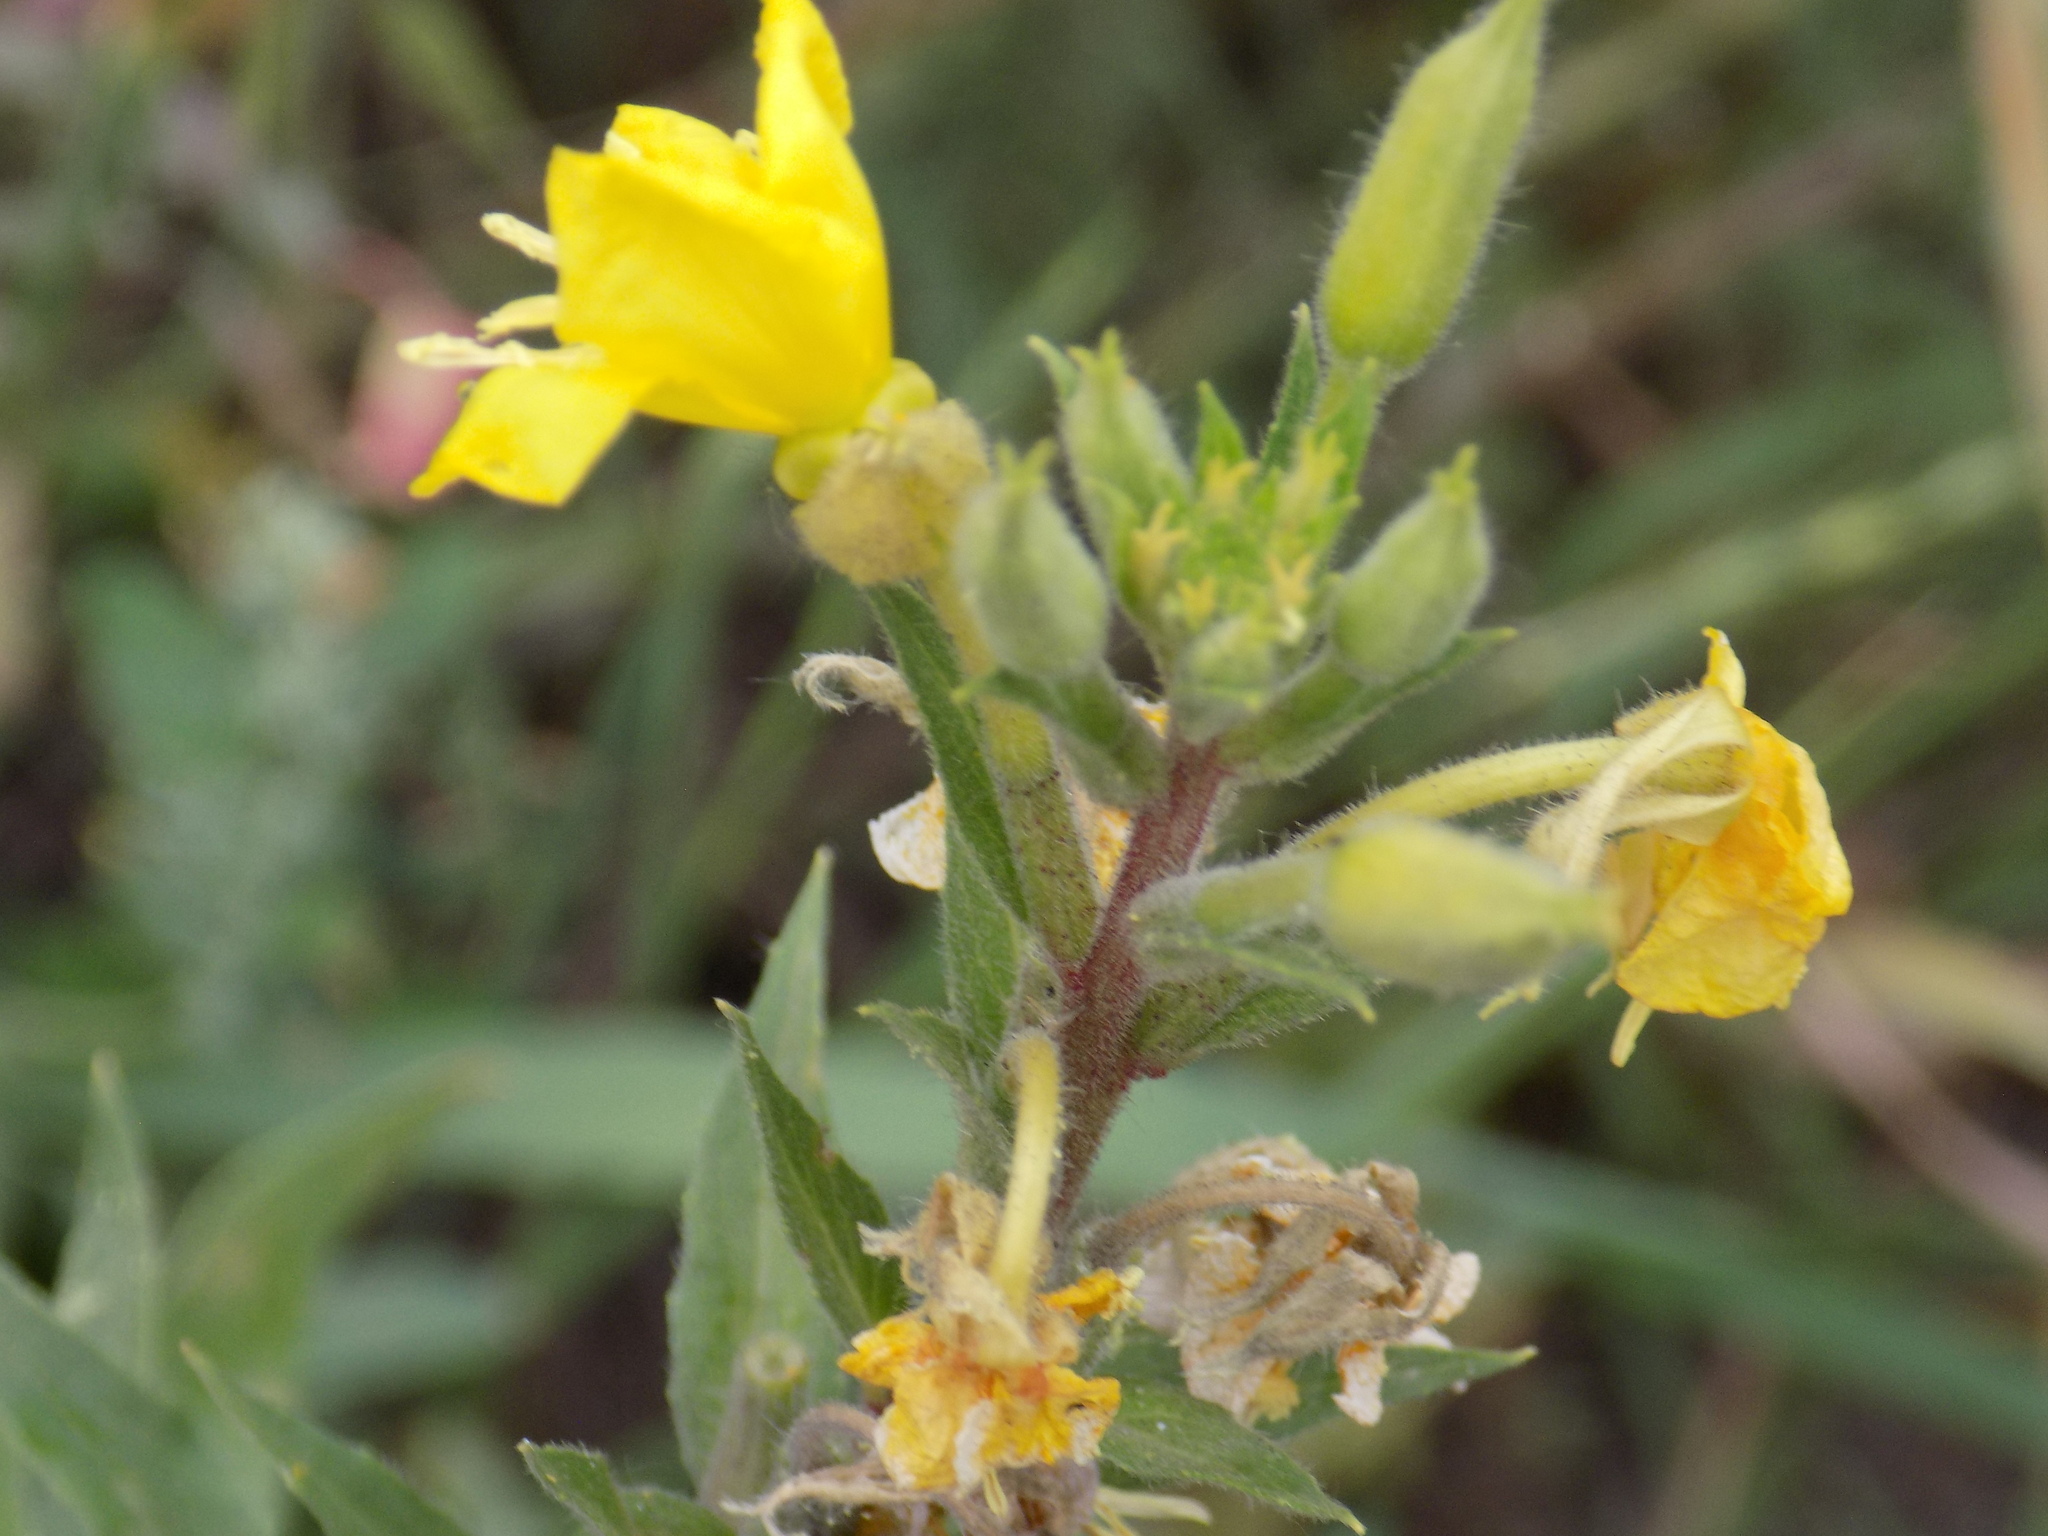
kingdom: Plantae
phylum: Tracheophyta
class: Magnoliopsida
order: Myrtales
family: Onagraceae
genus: Oenothera
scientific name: Oenothera rubricaulis
